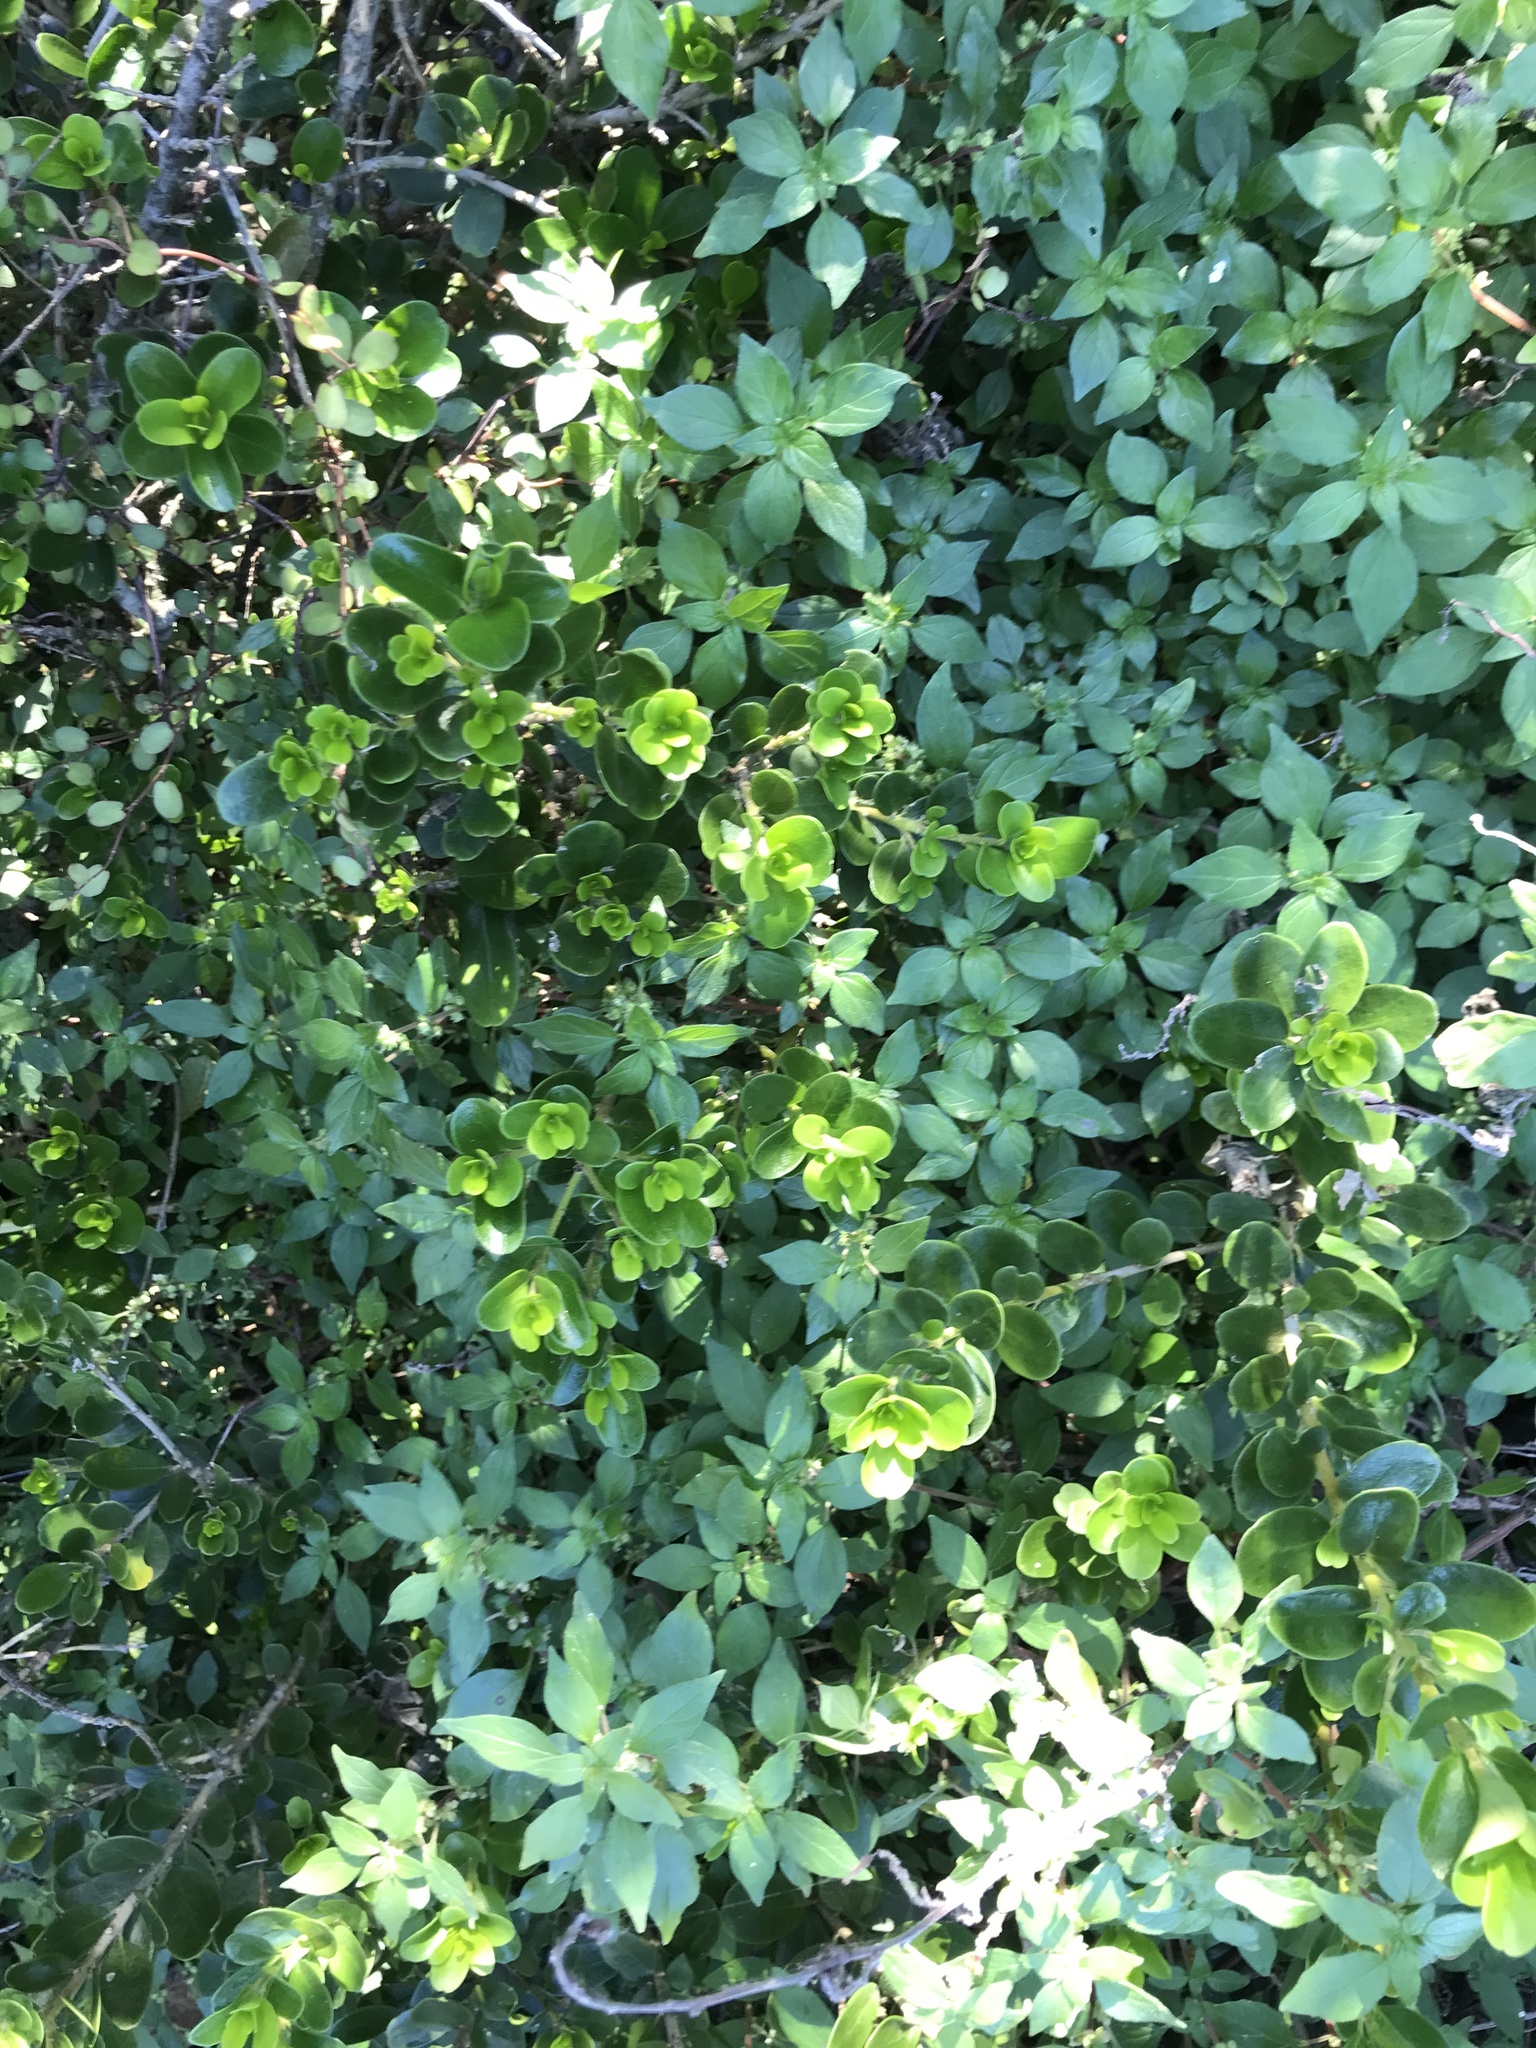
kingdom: Plantae
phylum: Tracheophyta
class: Magnoliopsida
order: Malpighiales
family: Violaceae
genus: Melicytus
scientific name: Melicytus orarius
